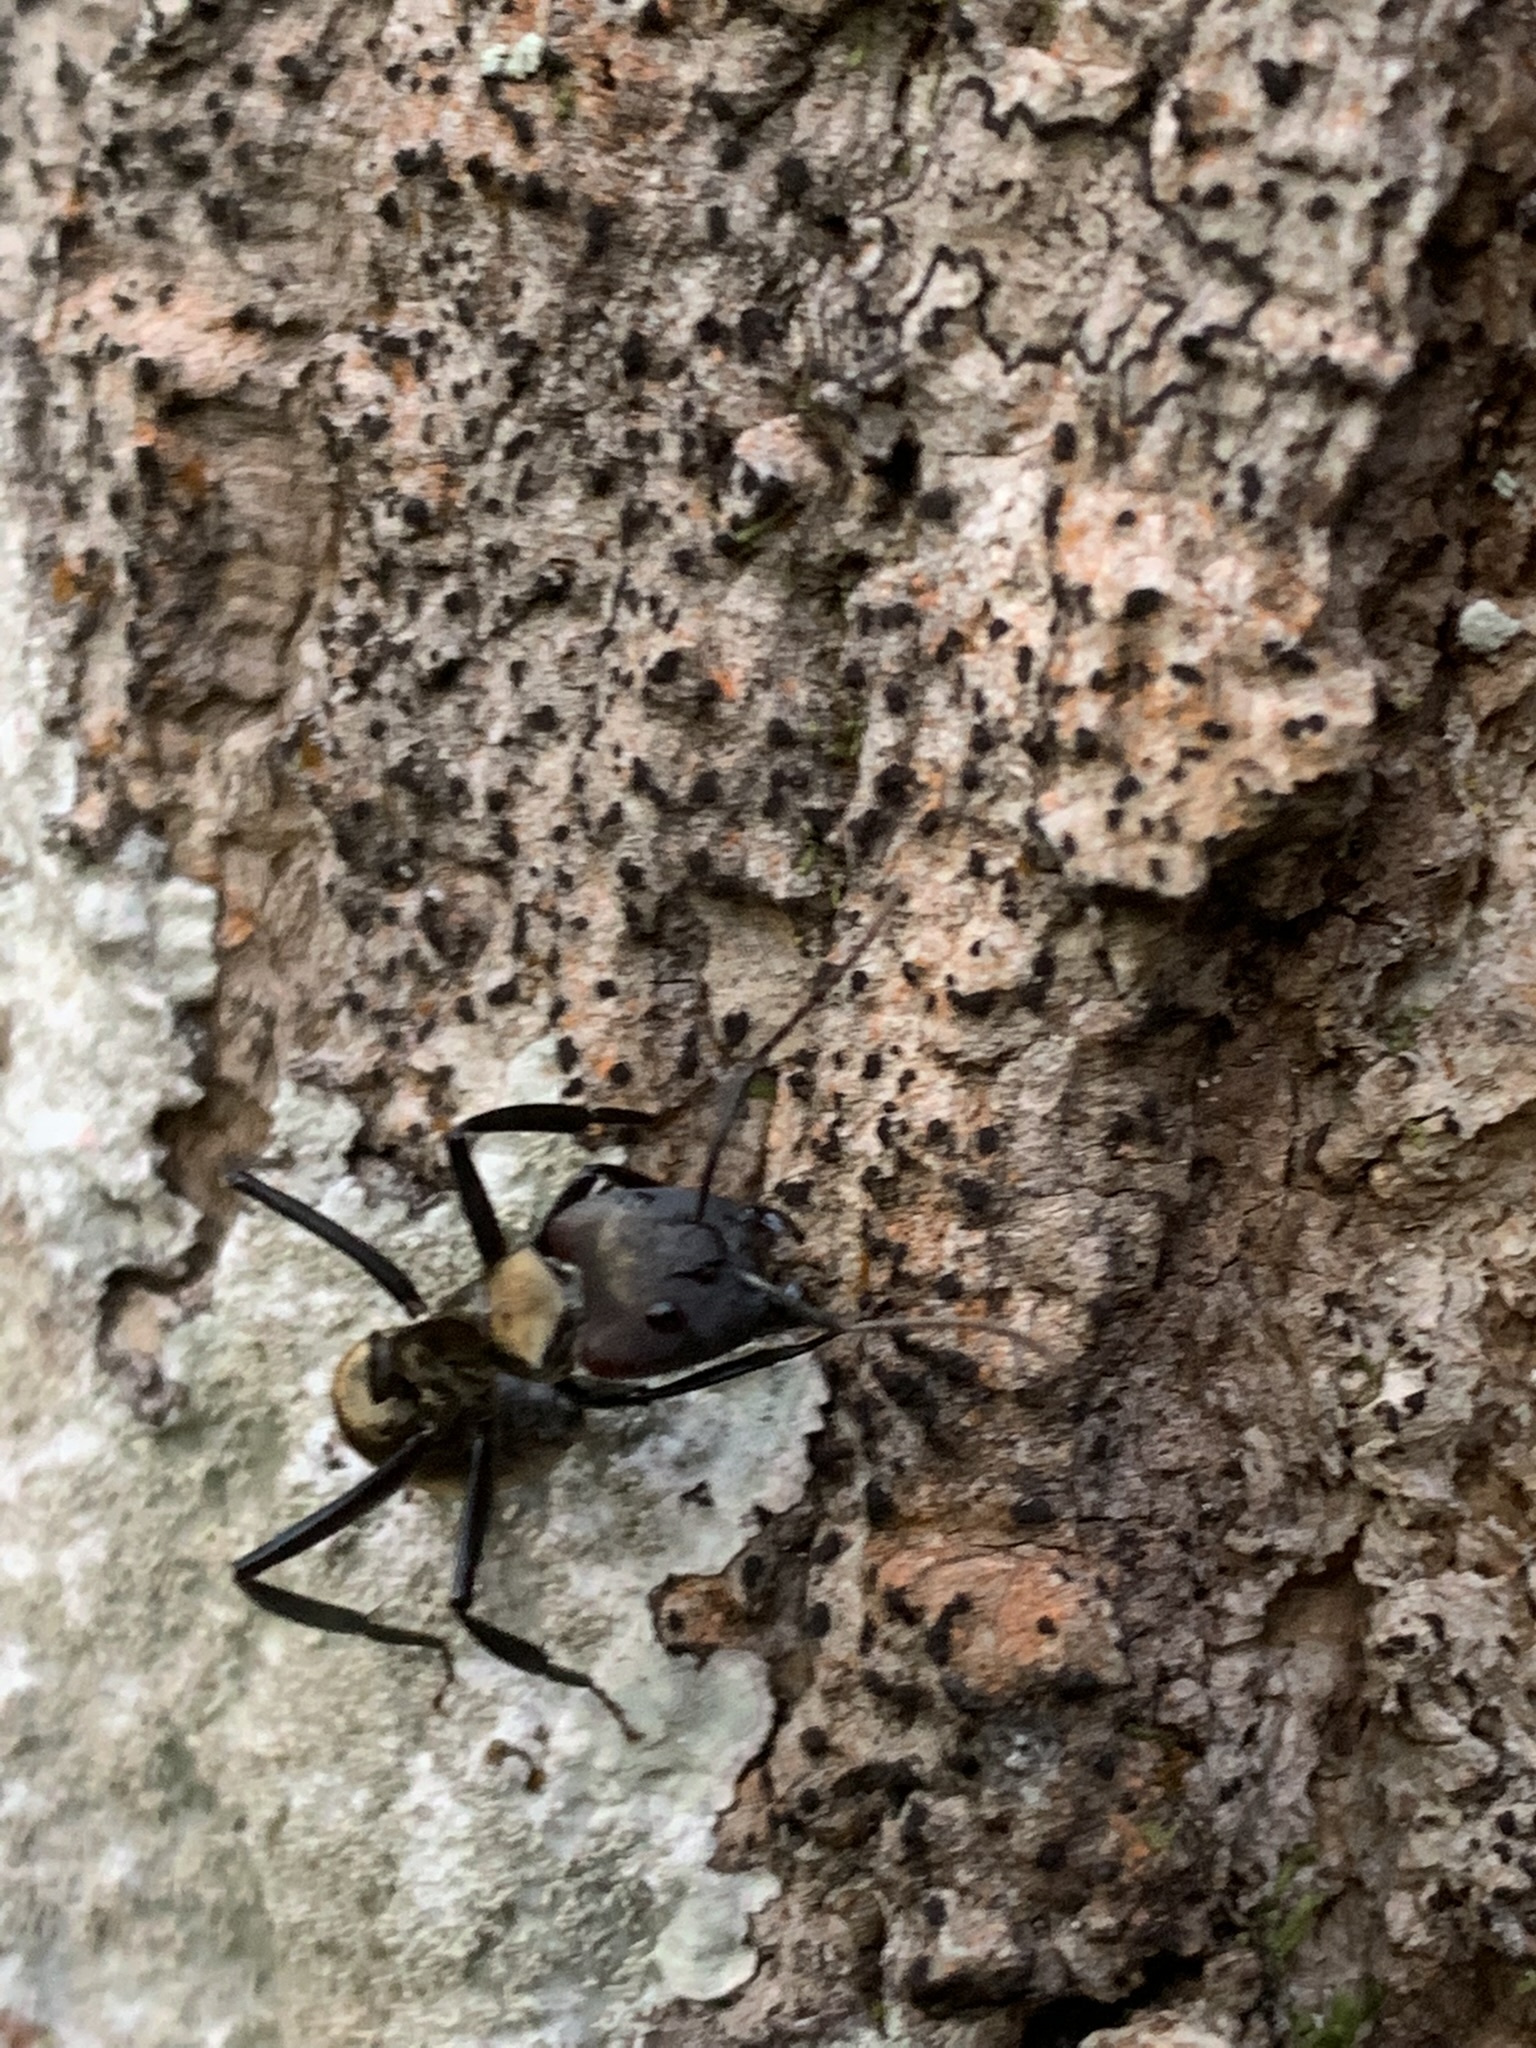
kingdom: Animalia
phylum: Arthropoda
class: Insecta
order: Hymenoptera
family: Formicidae
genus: Camponotus
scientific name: Camponotus sericeiventris
